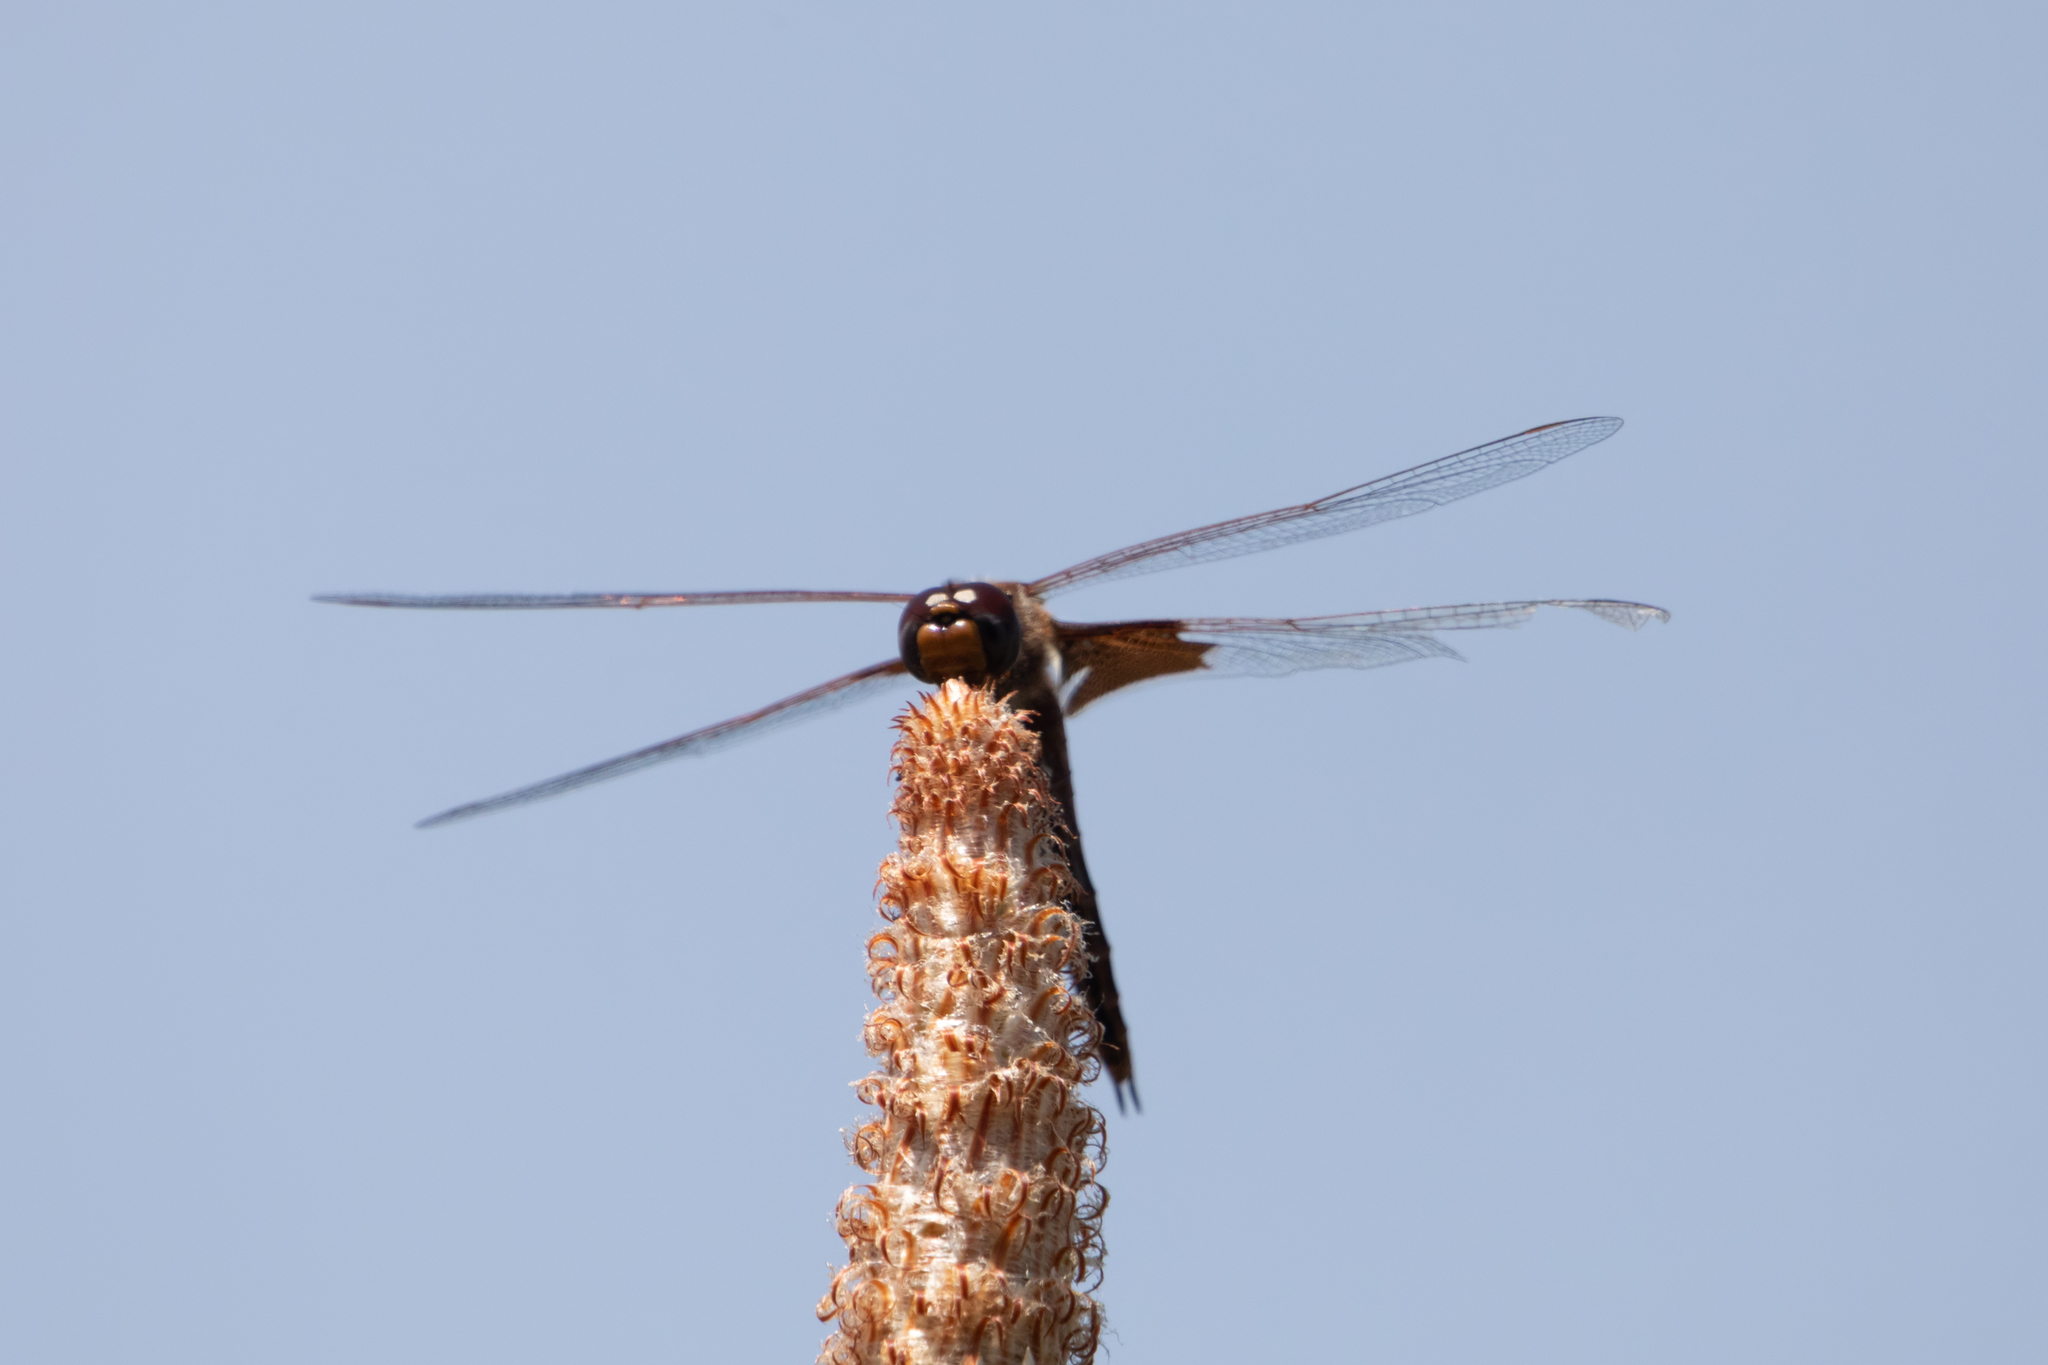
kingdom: Animalia
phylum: Arthropoda
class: Insecta
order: Odonata
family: Libellulidae
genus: Tramea
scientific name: Tramea onusta
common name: Red saddlebags
